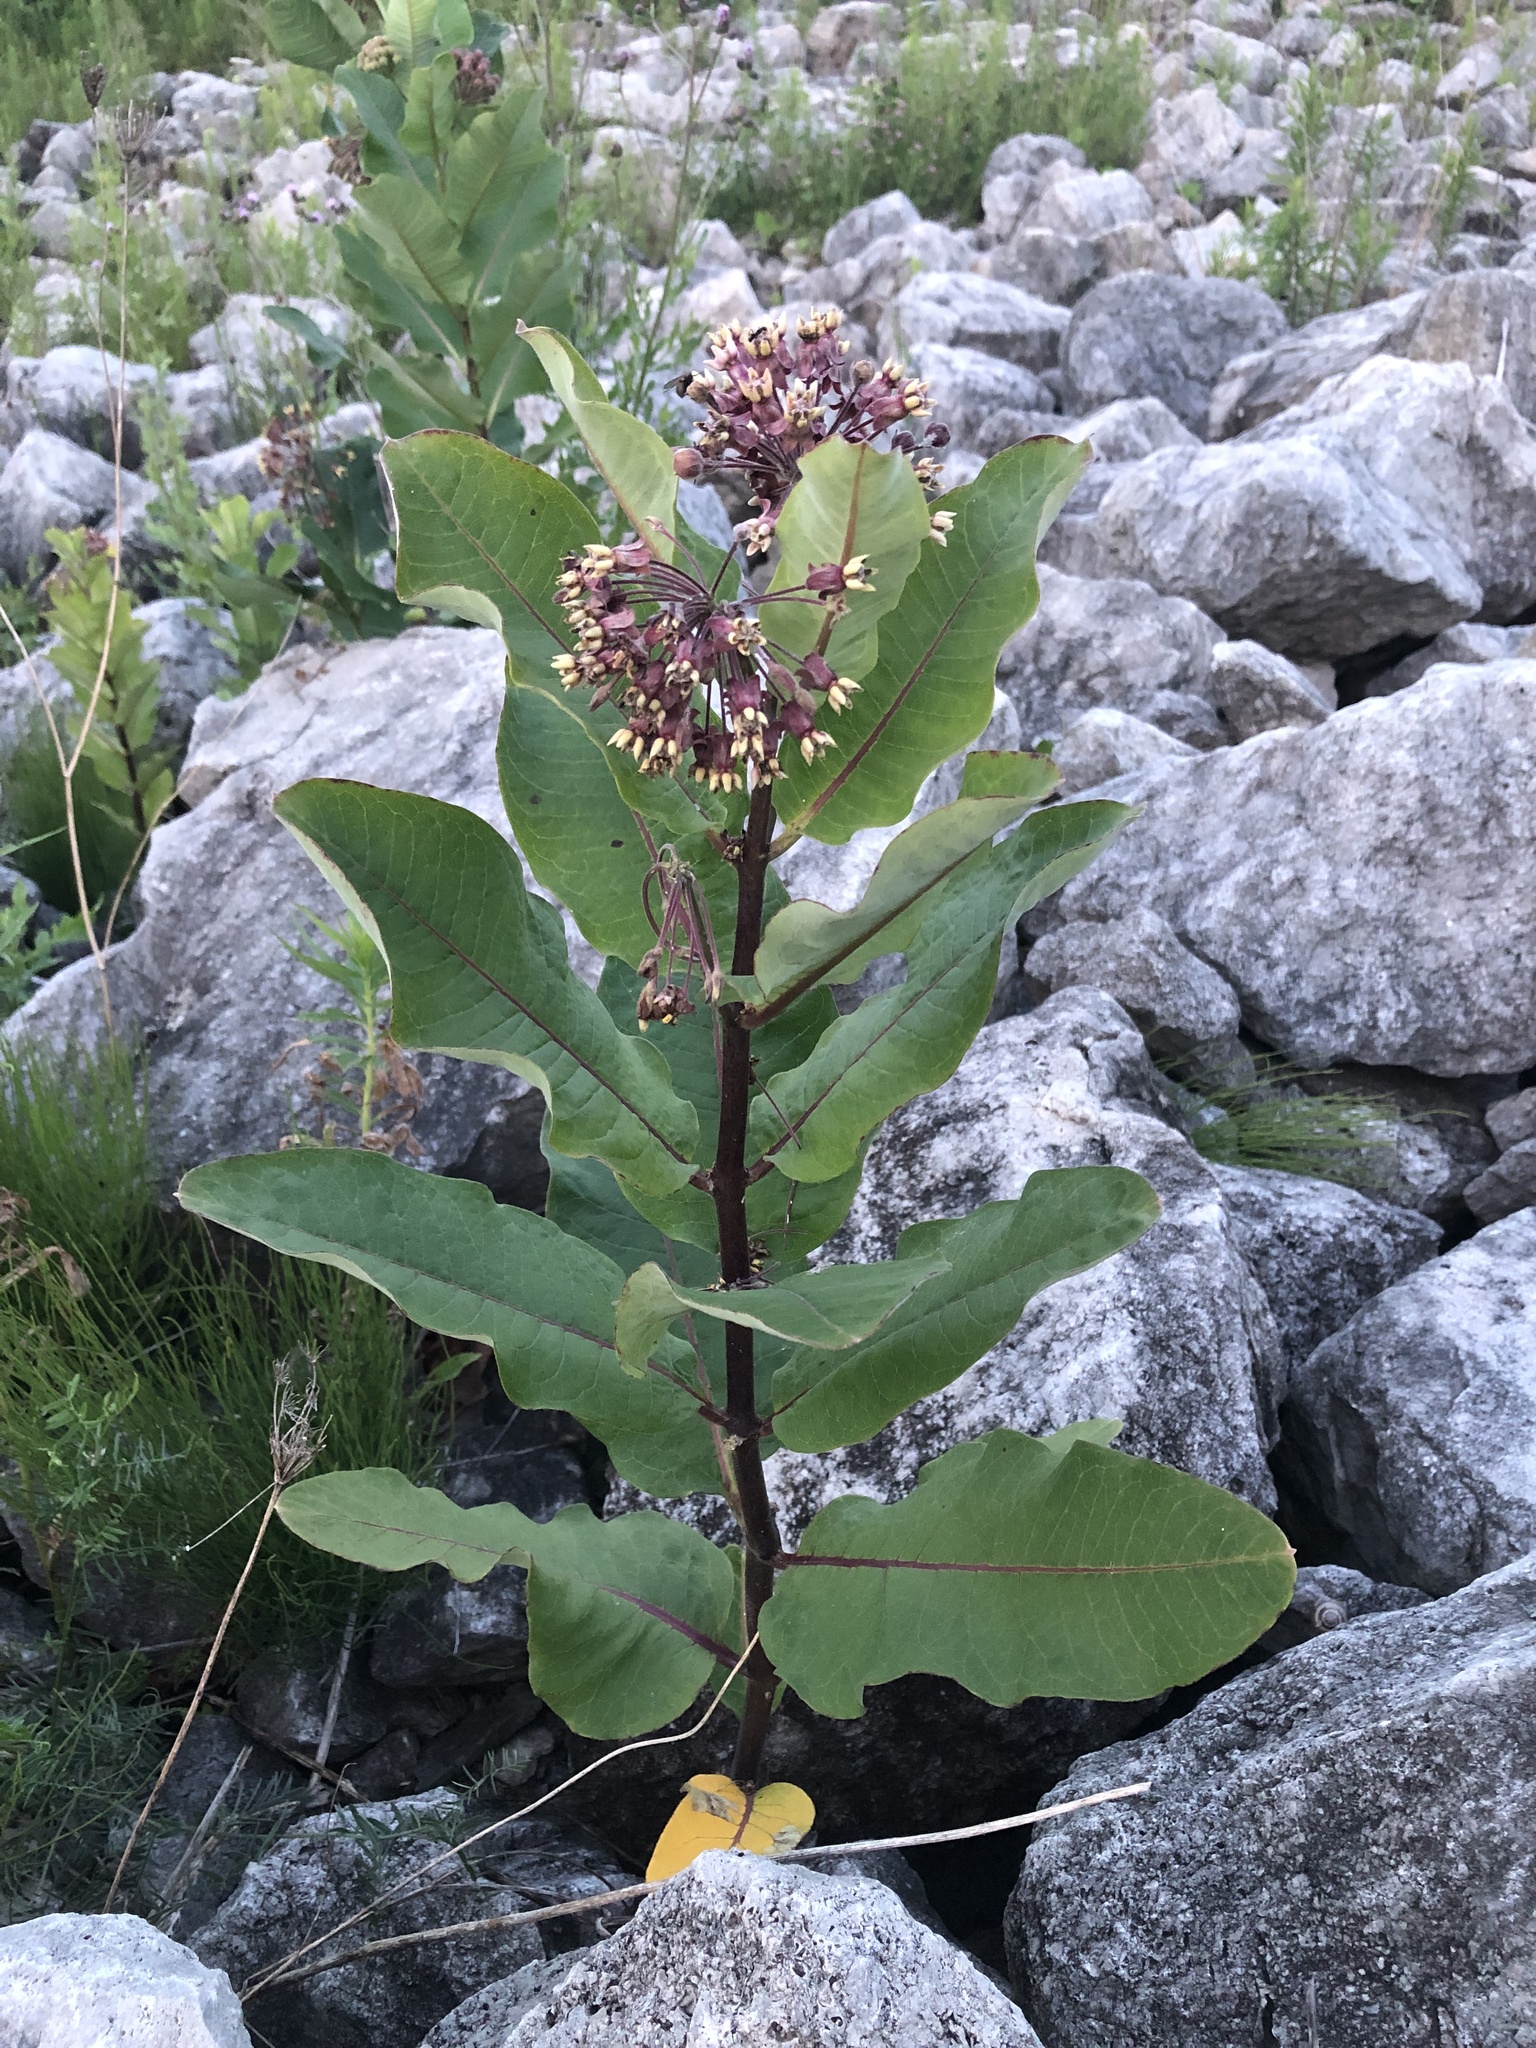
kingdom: Plantae
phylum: Tracheophyta
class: Magnoliopsida
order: Gentianales
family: Apocynaceae
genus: Asclepias
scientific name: Asclepias syriaca
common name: Common milkweed
